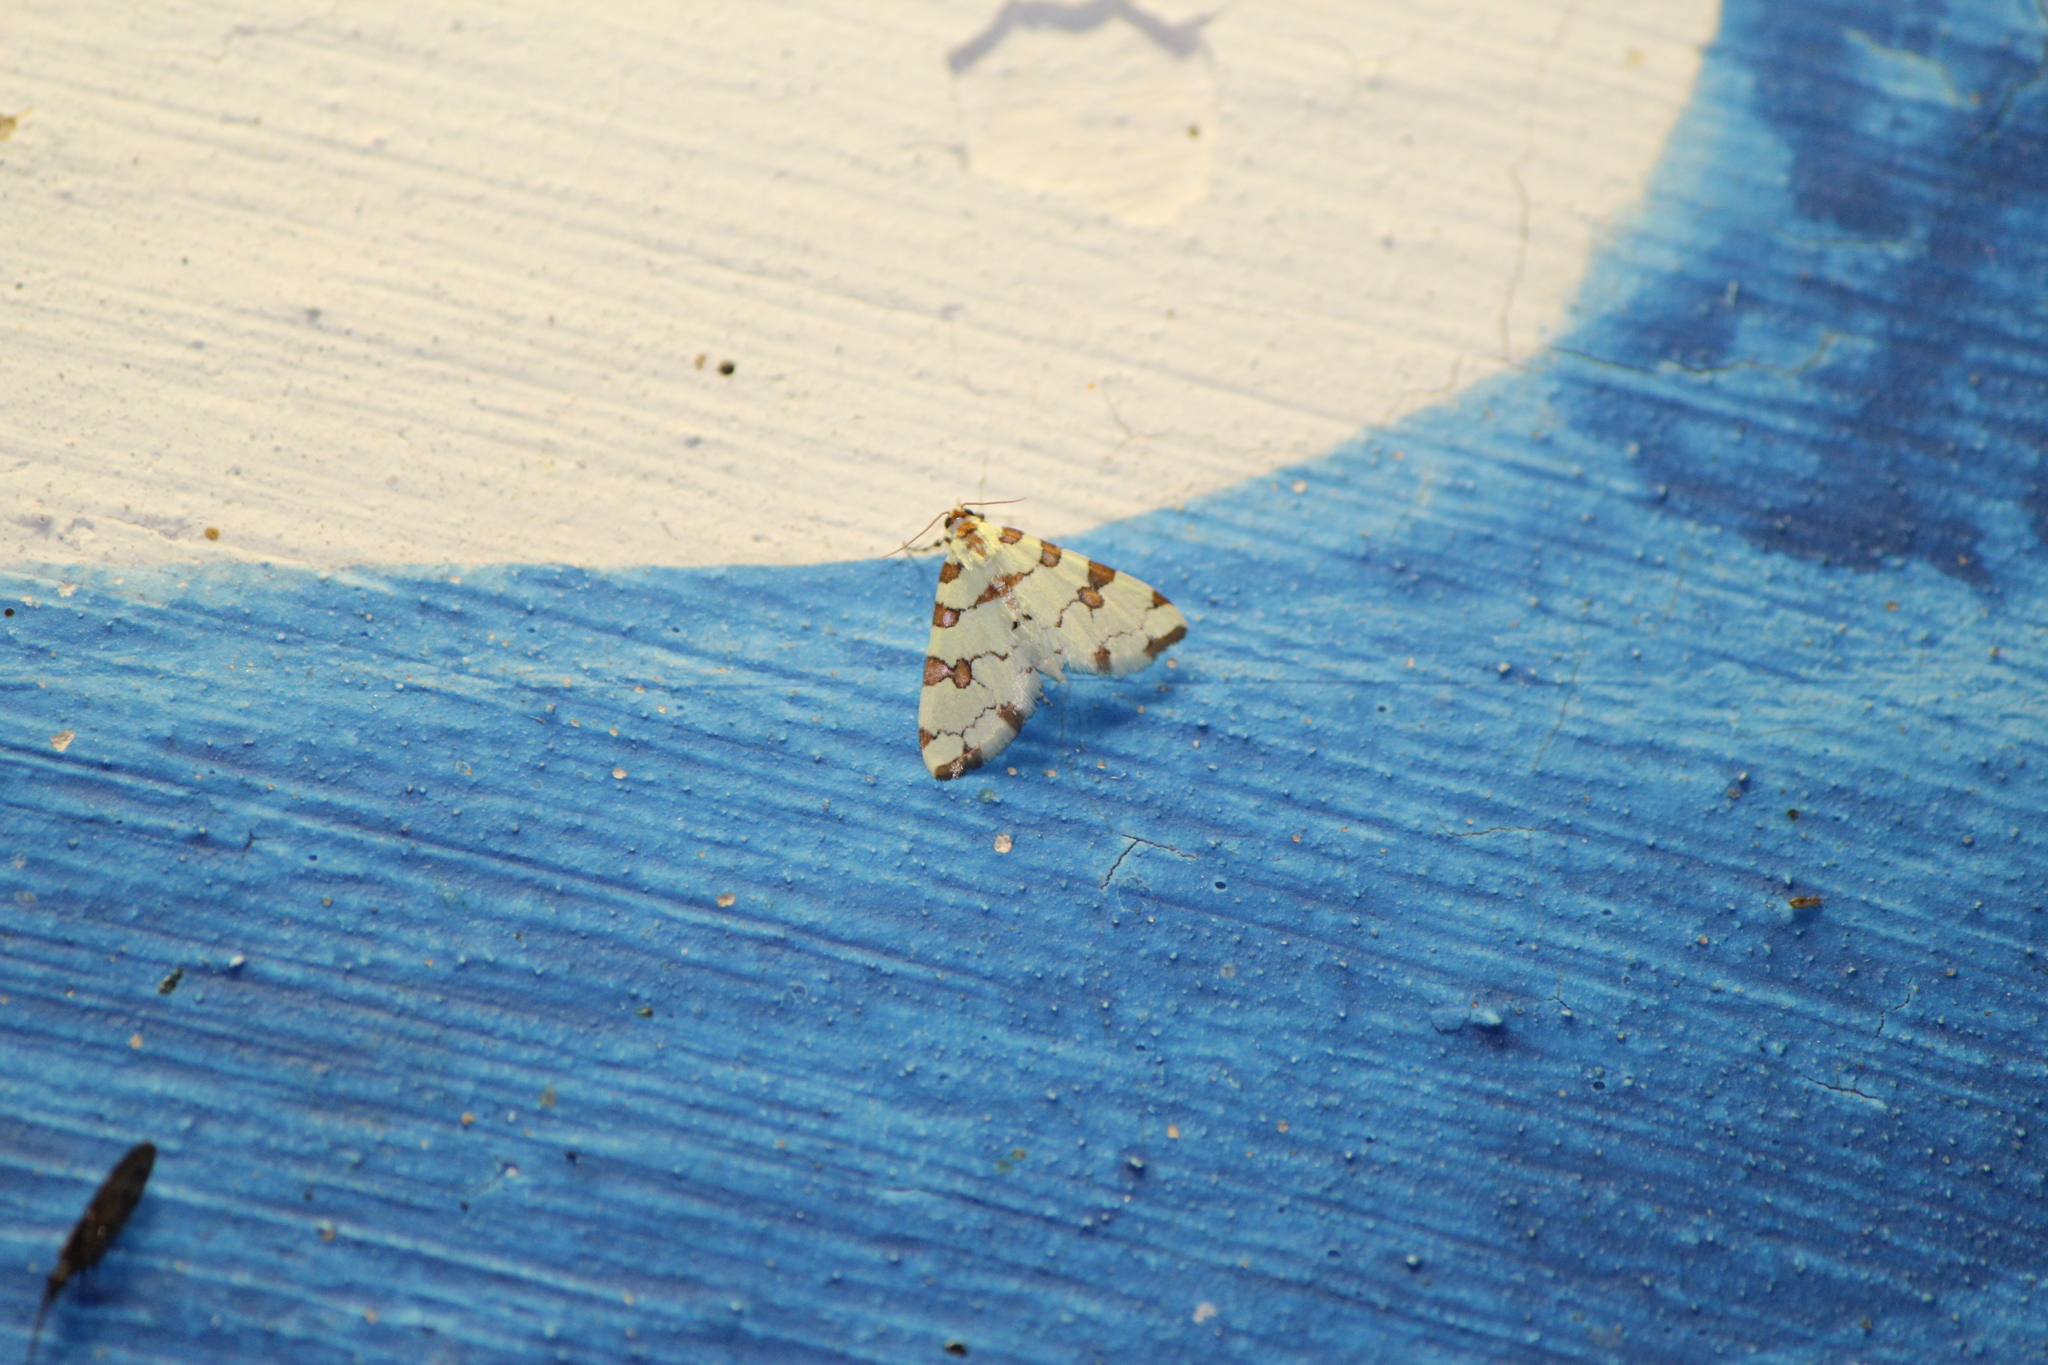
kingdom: Animalia
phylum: Arthropoda
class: Insecta
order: Lepidoptera
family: Crambidae
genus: Conchylodes
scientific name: Conchylodes
